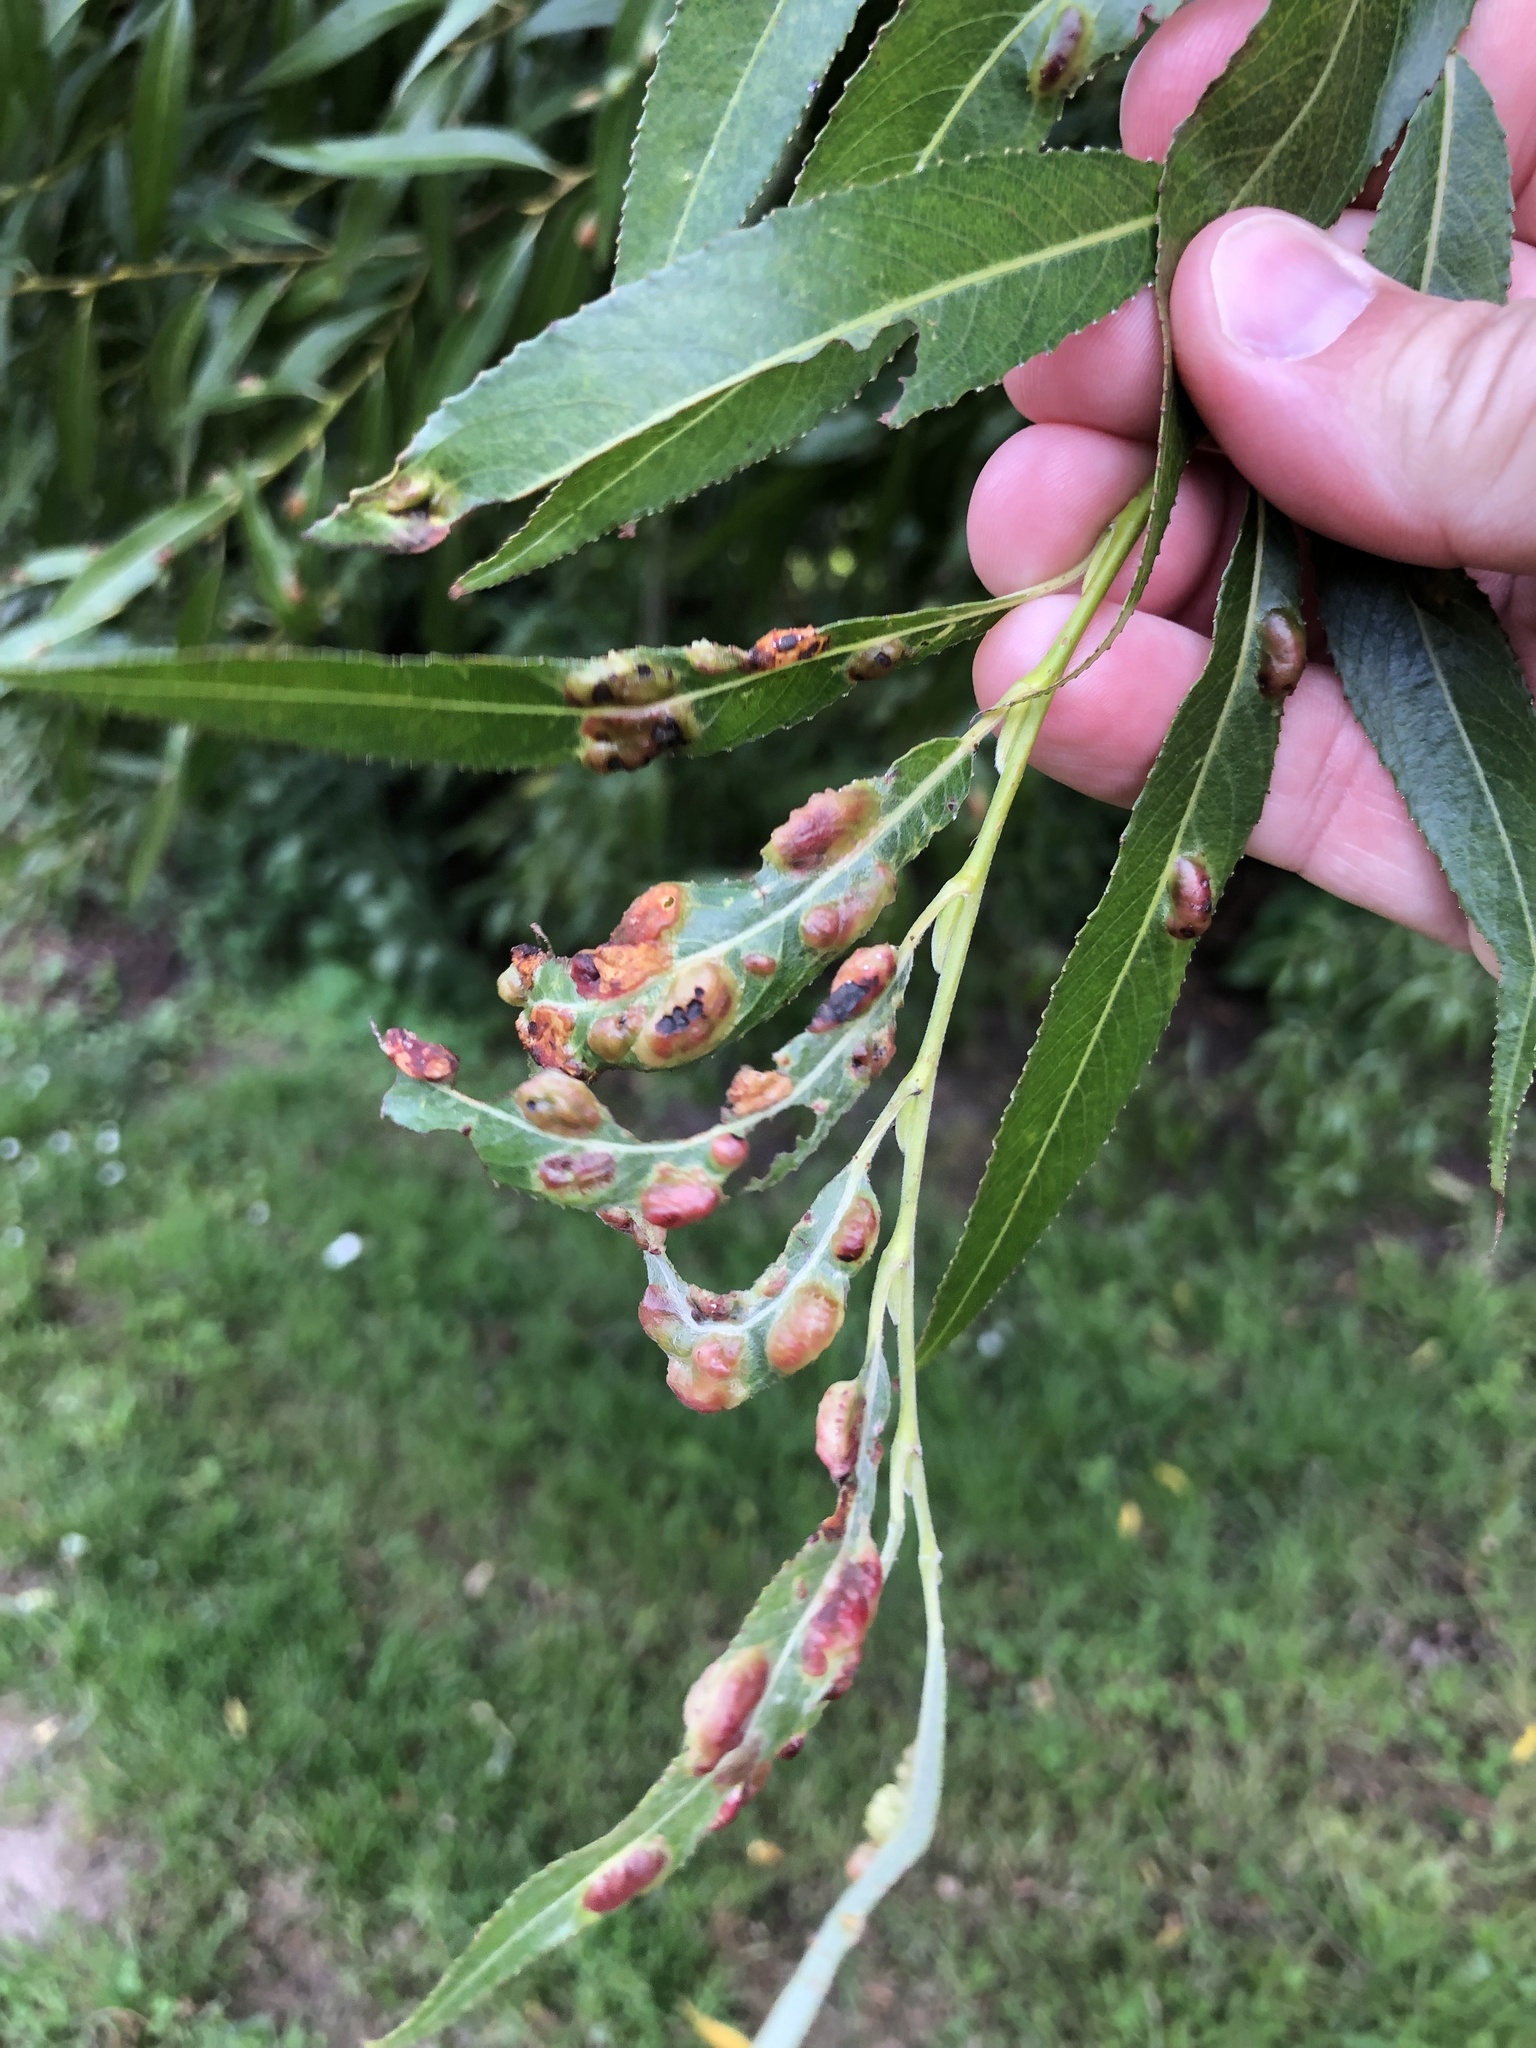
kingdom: Animalia
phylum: Arthropoda
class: Insecta
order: Hymenoptera
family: Tenthredinidae
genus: Pontania
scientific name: Pontania proxima
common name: Common sawfly
